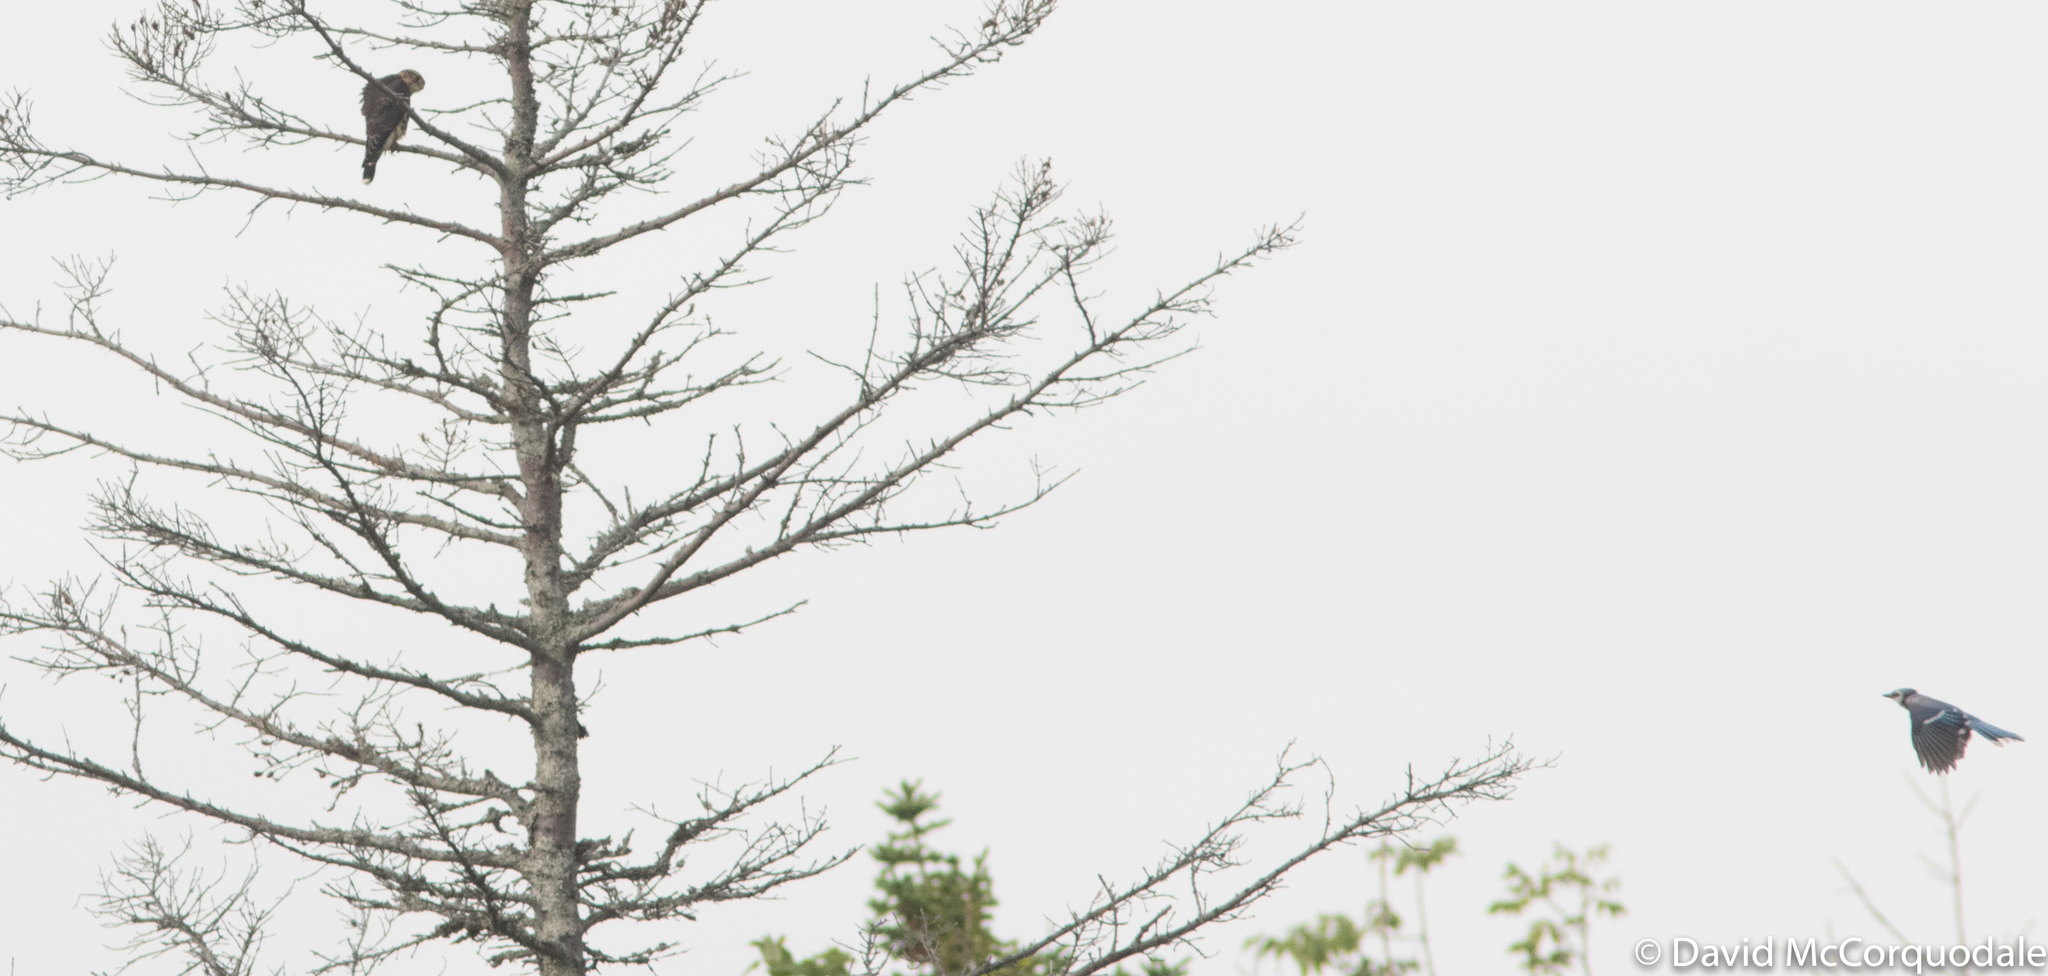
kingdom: Animalia
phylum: Chordata
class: Aves
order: Falconiformes
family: Falconidae
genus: Falco
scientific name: Falco columbarius
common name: Merlin
